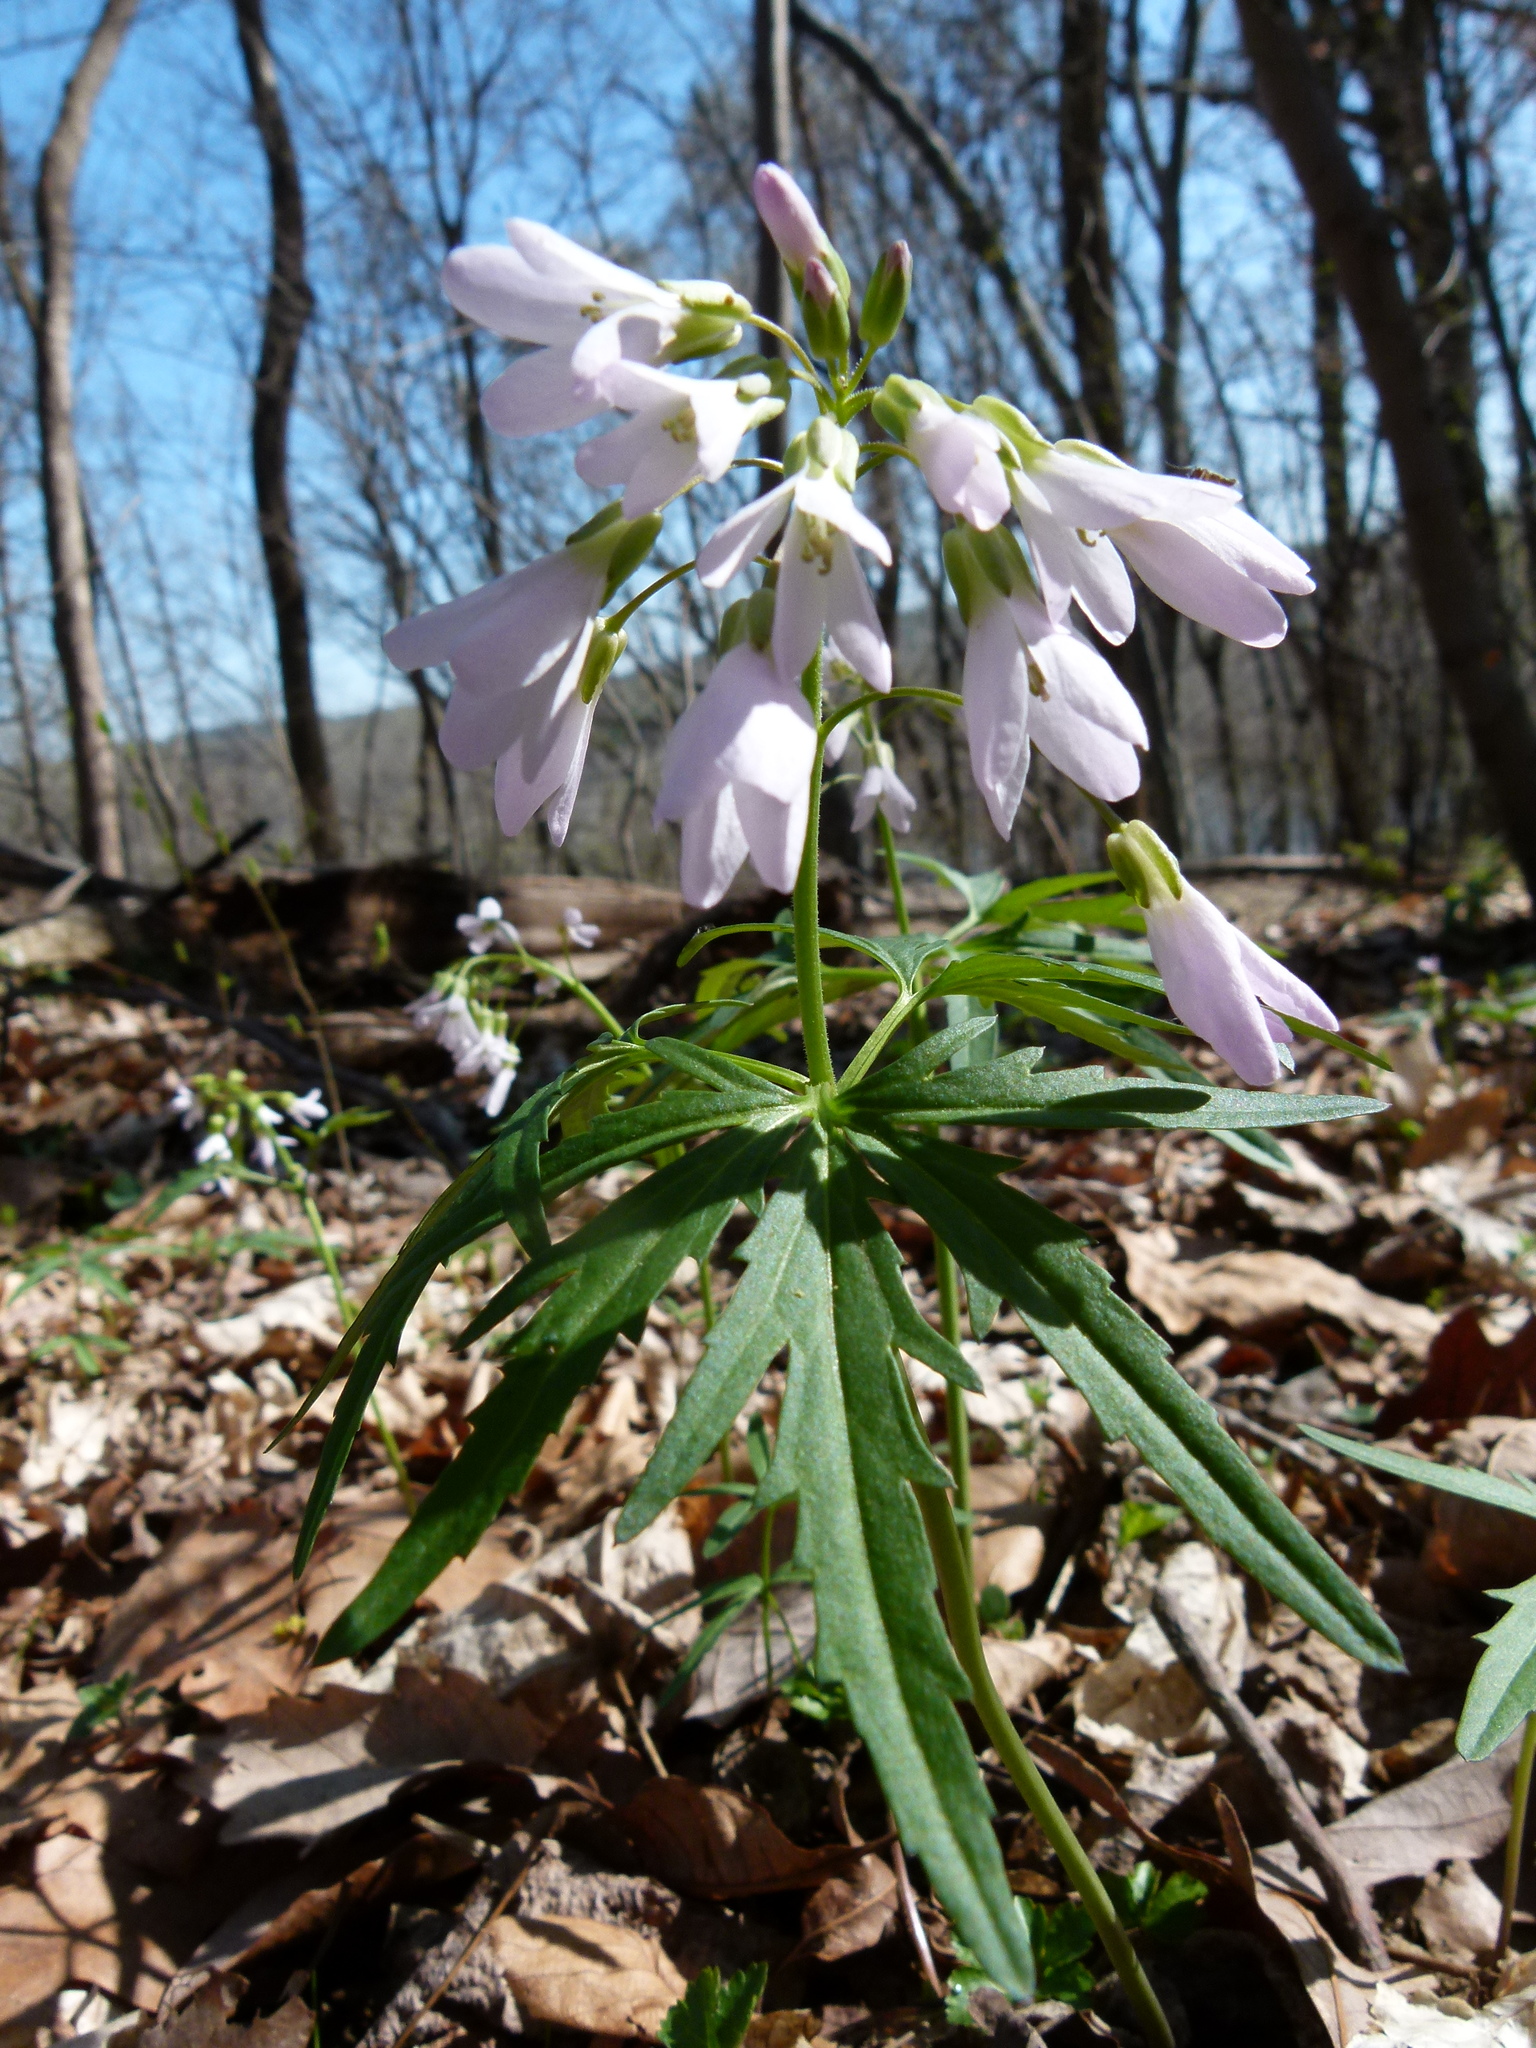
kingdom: Plantae
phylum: Tracheophyta
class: Magnoliopsida
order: Brassicales
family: Brassicaceae
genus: Cardamine
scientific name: Cardamine concatenata
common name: Cut-leaf toothcup
